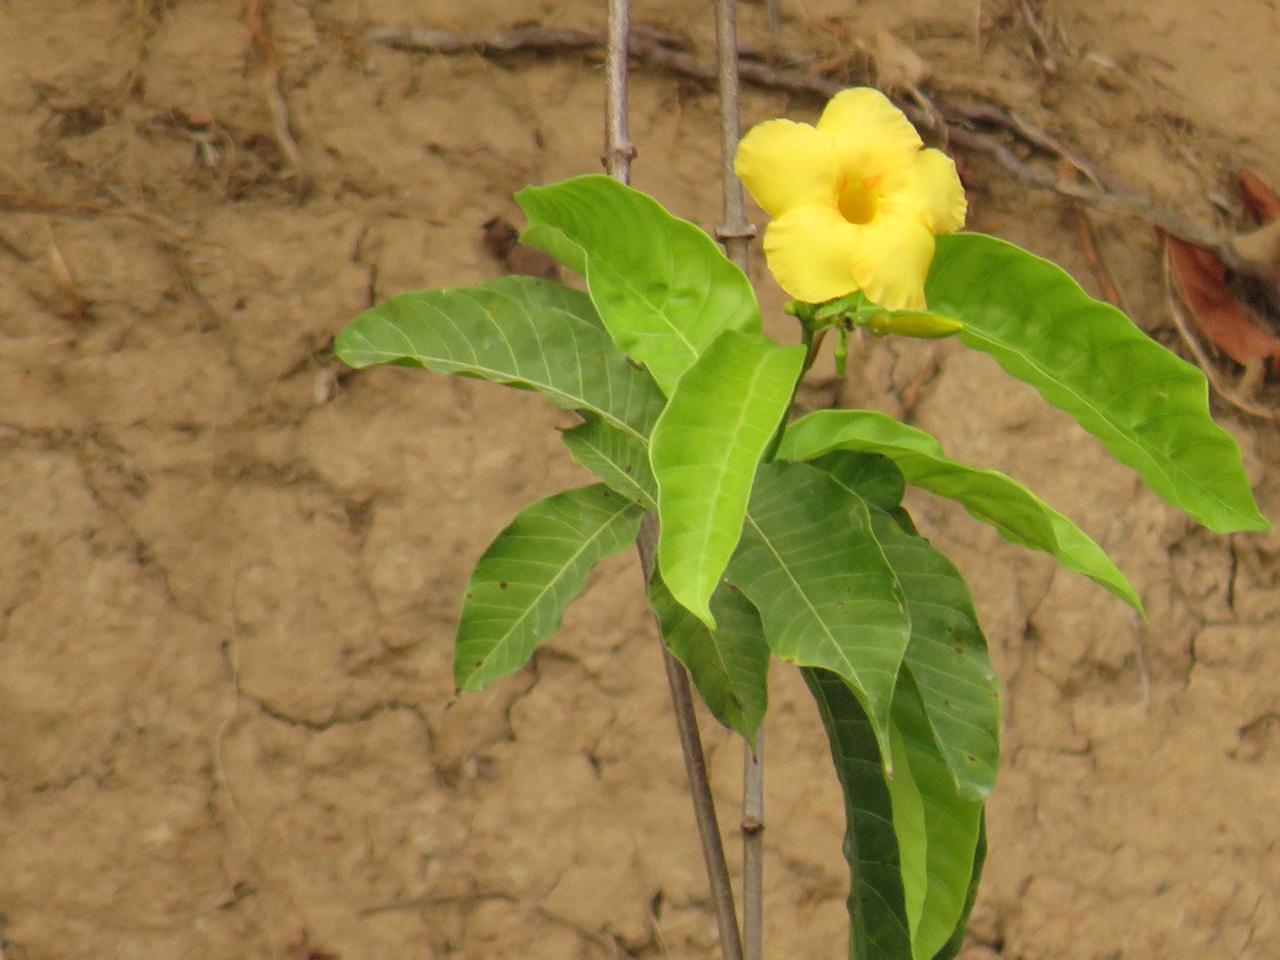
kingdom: Plantae
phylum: Tracheophyta
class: Magnoliopsida
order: Gentianales
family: Apocynaceae
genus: Tabernaemontana
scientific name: Tabernaemontana grandiflora
